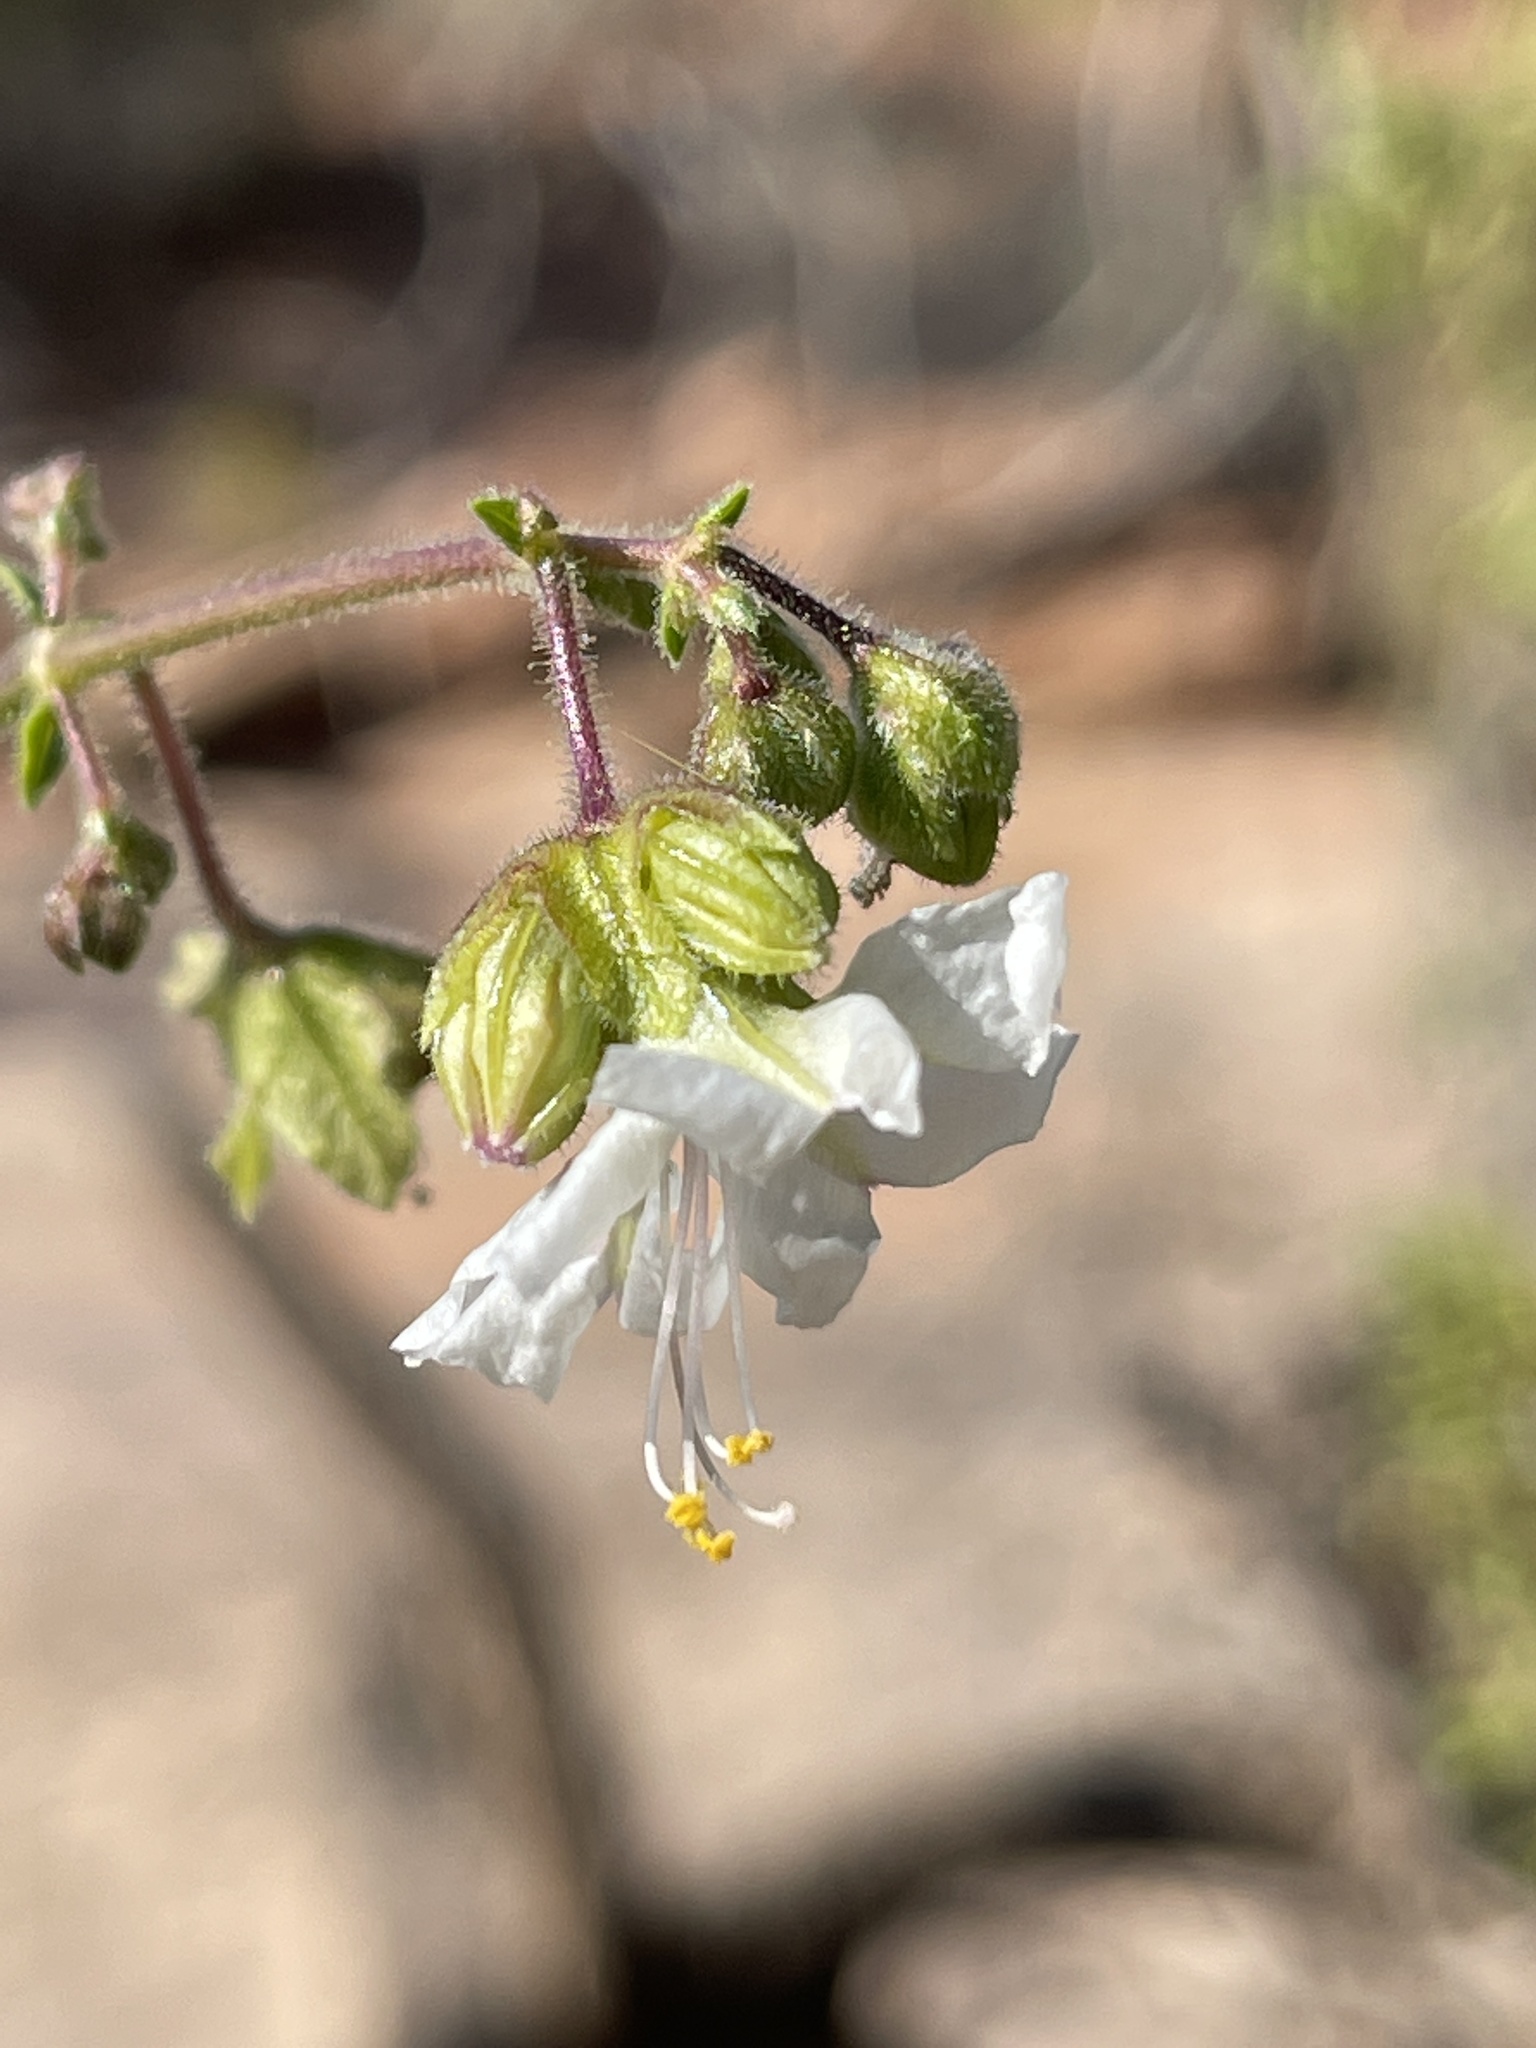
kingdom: Plantae
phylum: Tracheophyta
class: Magnoliopsida
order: Caryophyllales
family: Nyctaginaceae
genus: Mirabilis
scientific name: Mirabilis linearis
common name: Linear-leaved four-o'clock
